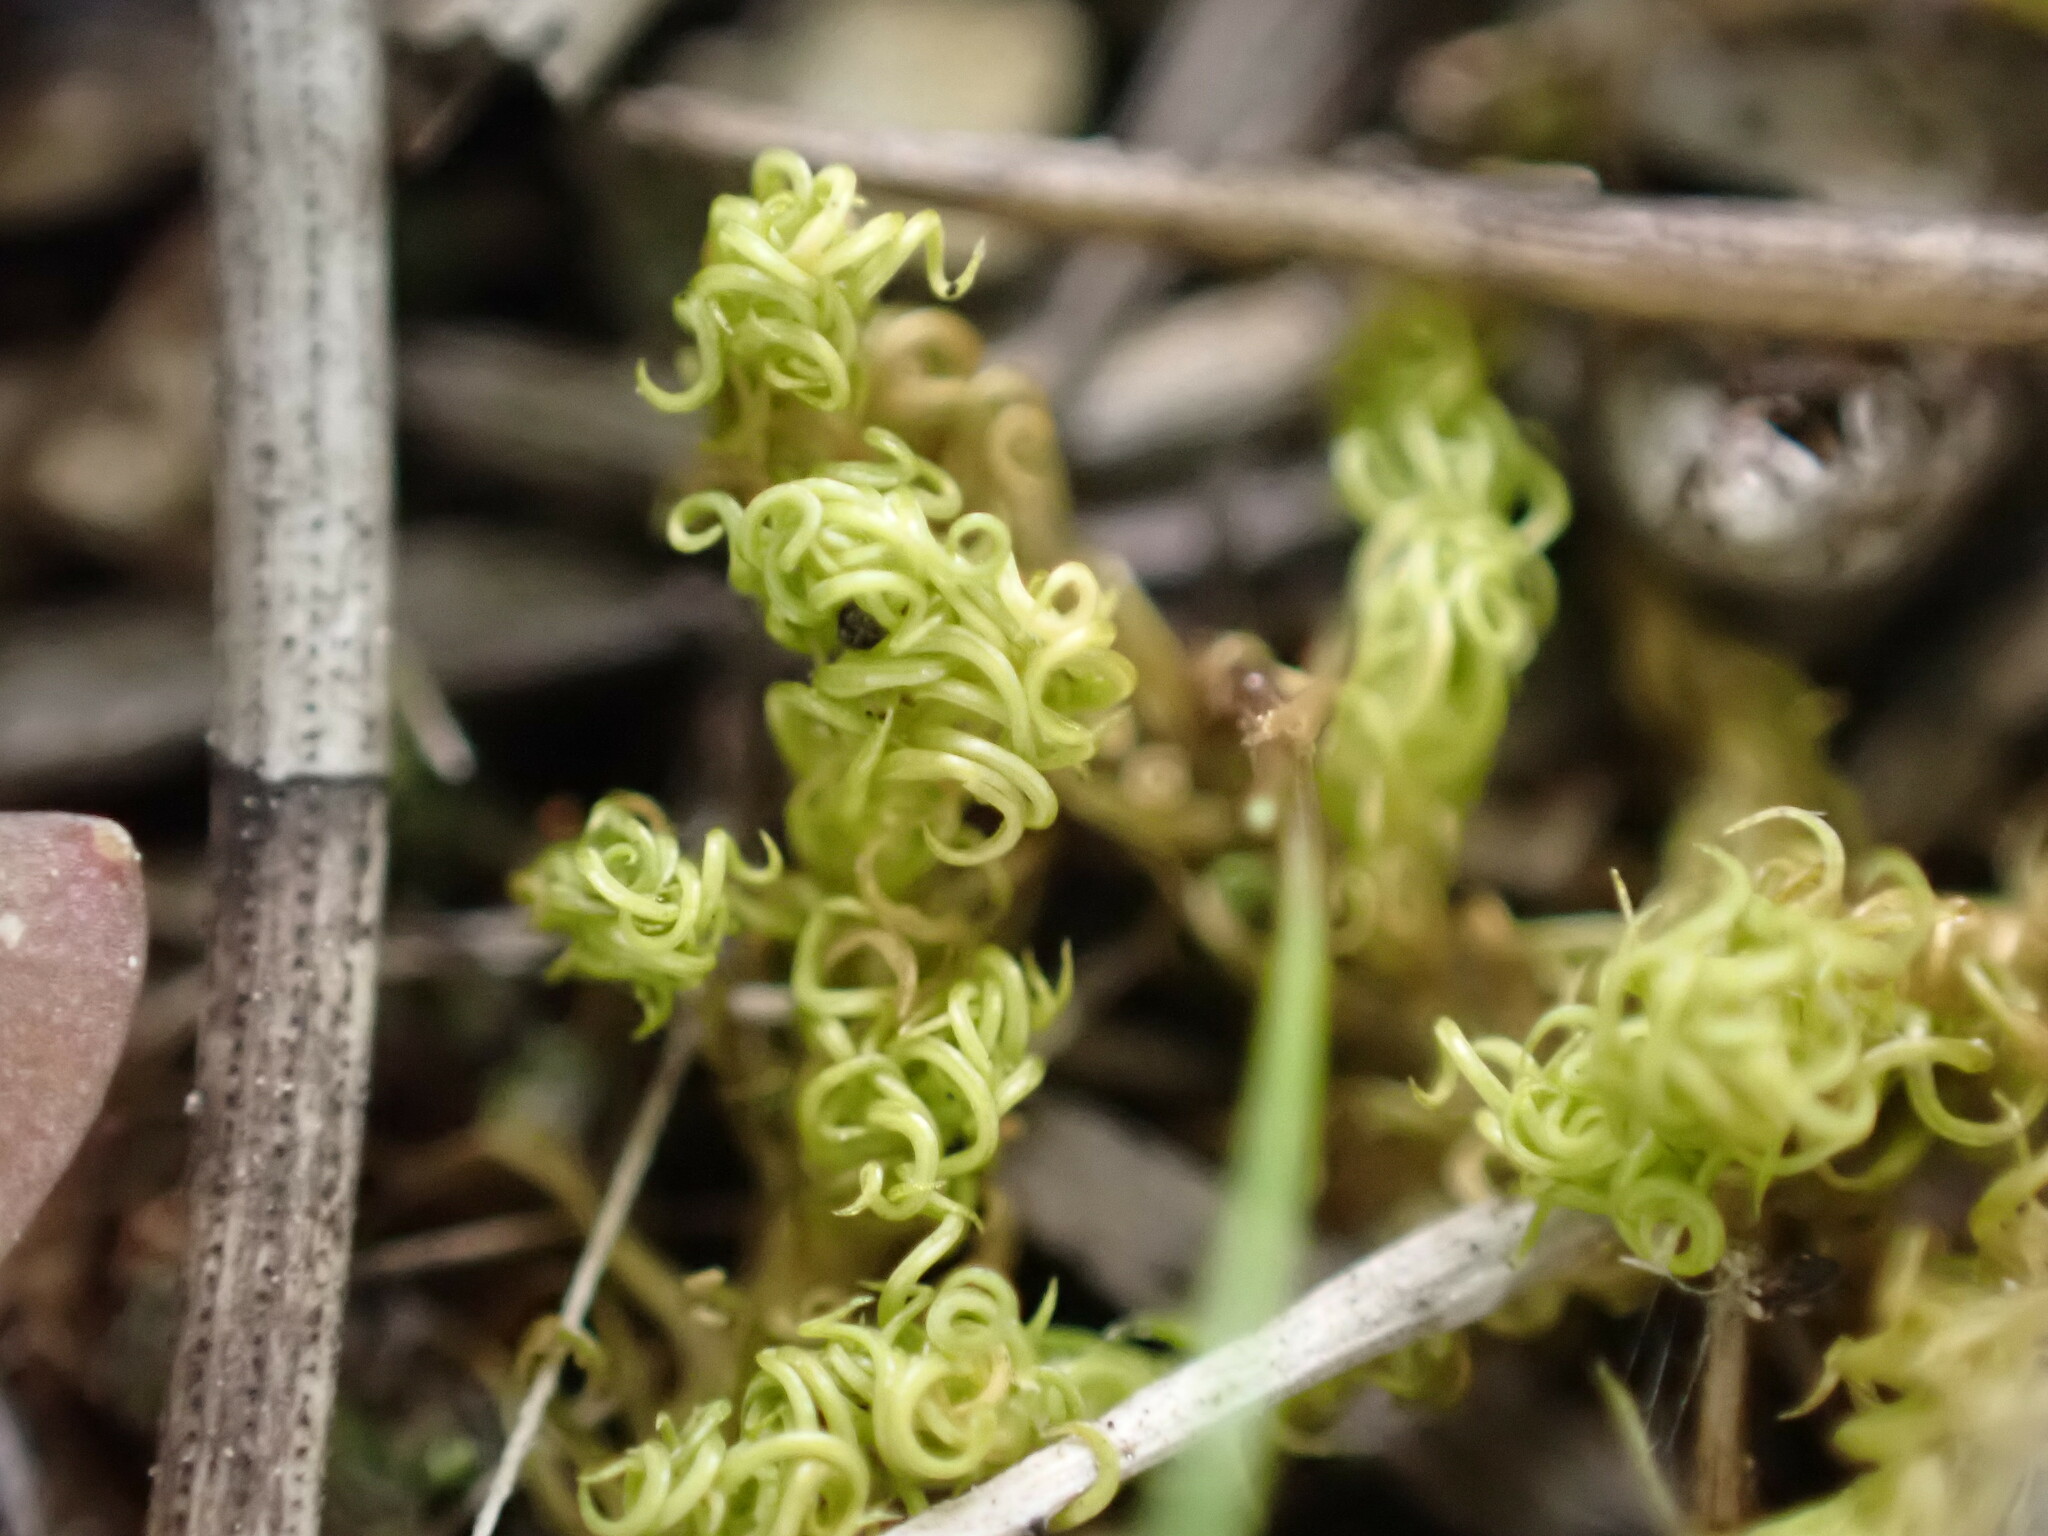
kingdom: Plantae
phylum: Bryophyta
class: Bryopsida
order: Pottiales
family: Pottiaceae
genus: Pleurochaete
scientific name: Pleurochaete squarrosa
